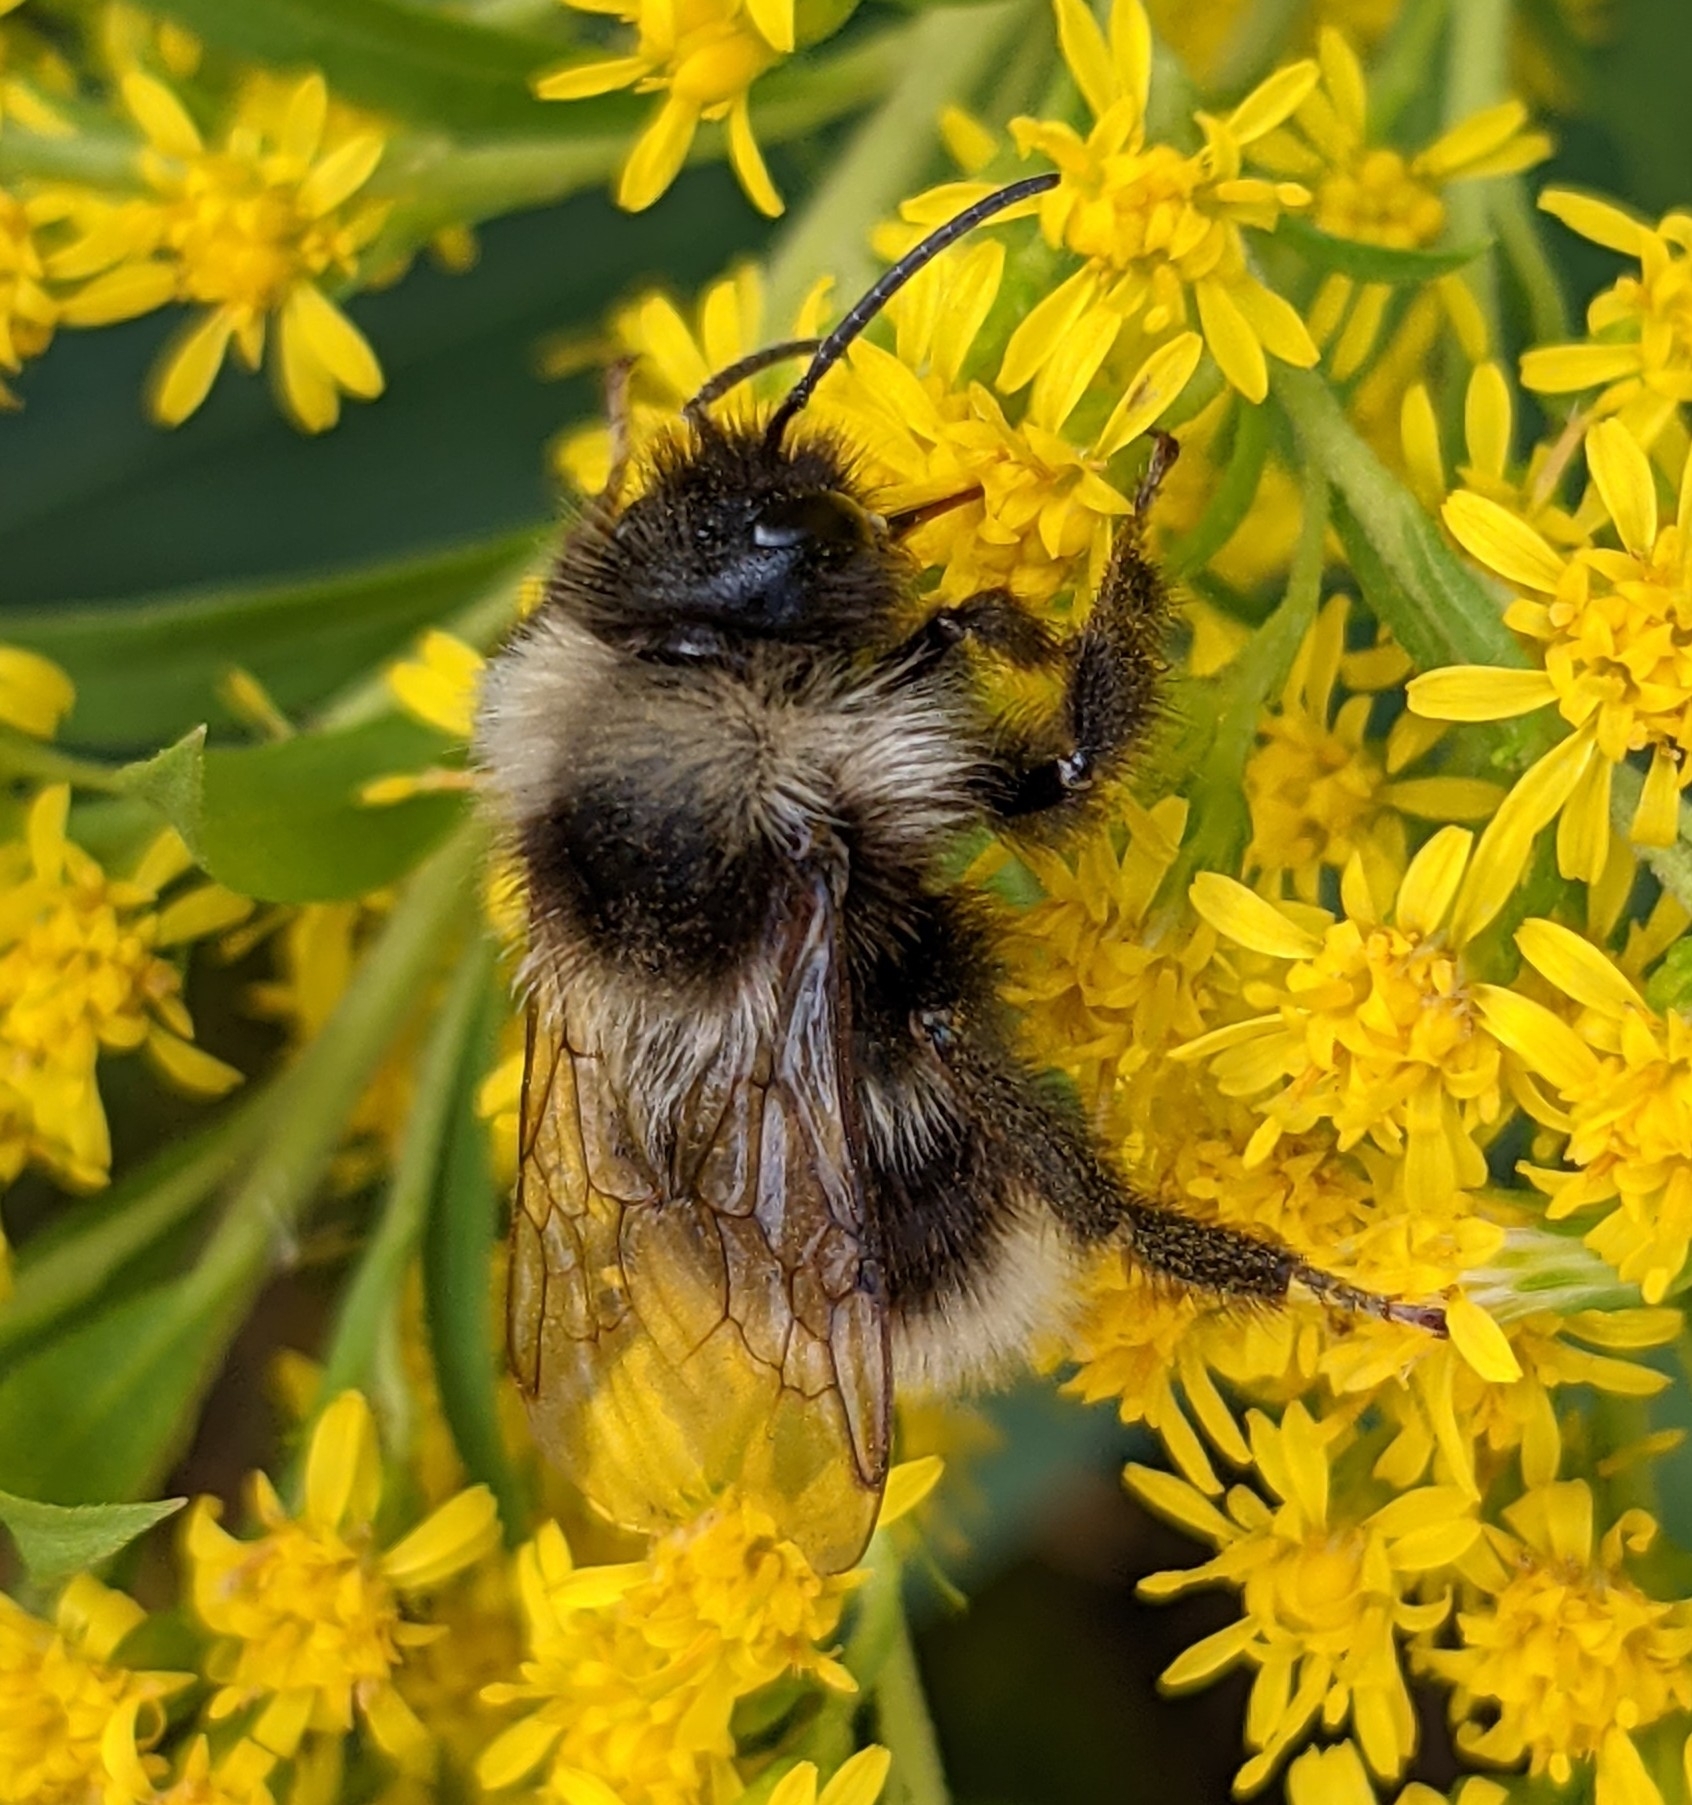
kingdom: Animalia
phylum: Arthropoda
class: Insecta
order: Hymenoptera
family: Apidae
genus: Bombus
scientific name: Bombus bohemicus
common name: Gypsy cuckoo bee
